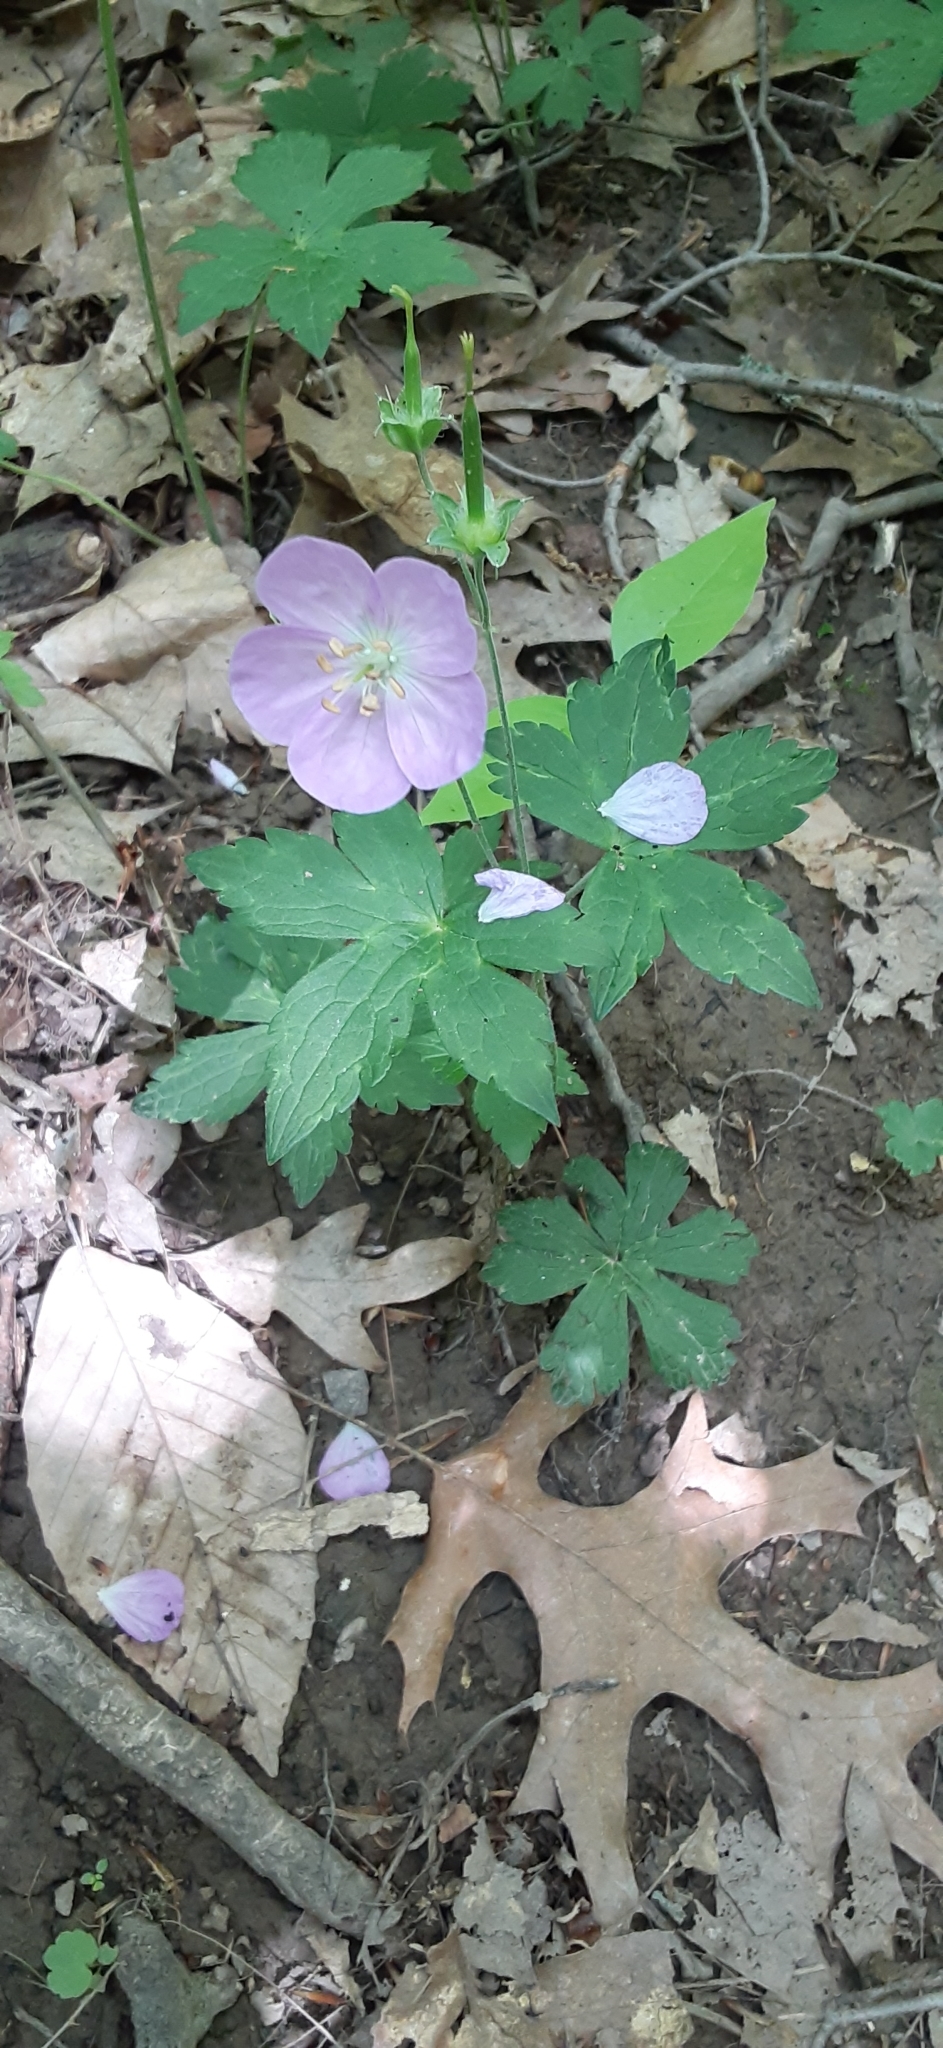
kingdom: Plantae
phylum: Tracheophyta
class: Magnoliopsida
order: Geraniales
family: Geraniaceae
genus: Geranium
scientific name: Geranium maculatum
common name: Spotted geranium
